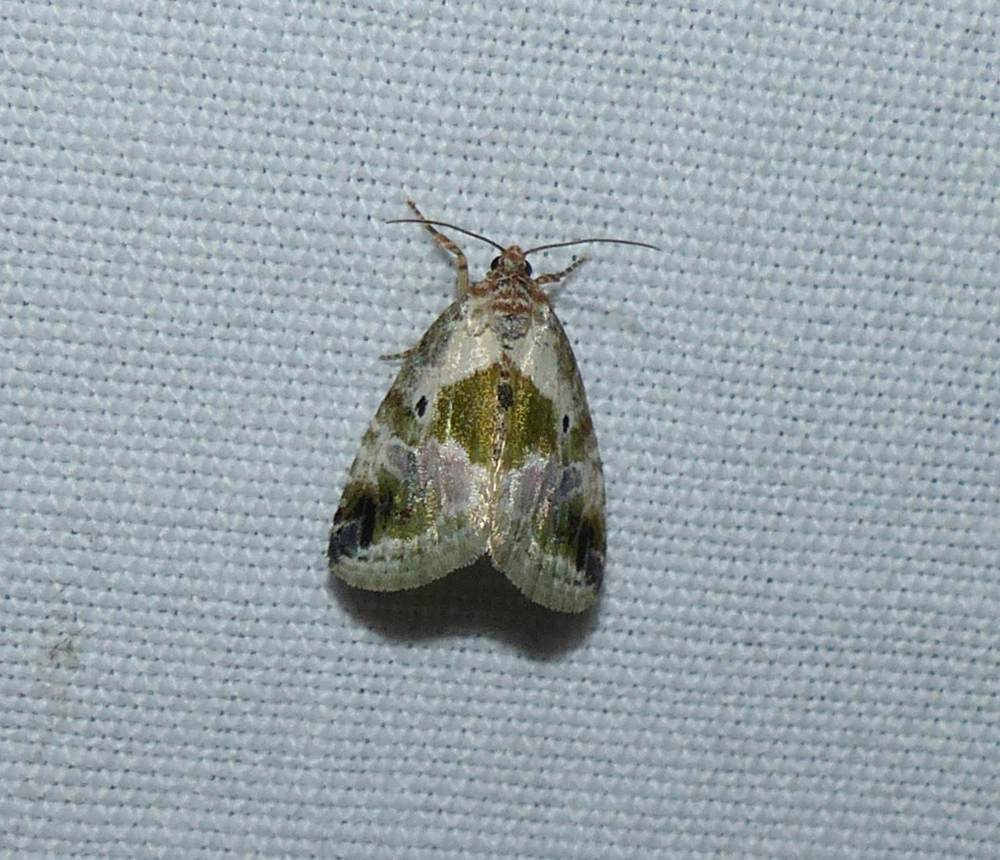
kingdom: Animalia
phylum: Arthropoda
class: Insecta
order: Lepidoptera
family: Noctuidae
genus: Maliattha
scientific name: Maliattha synochitis
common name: Black-dotted glyph
